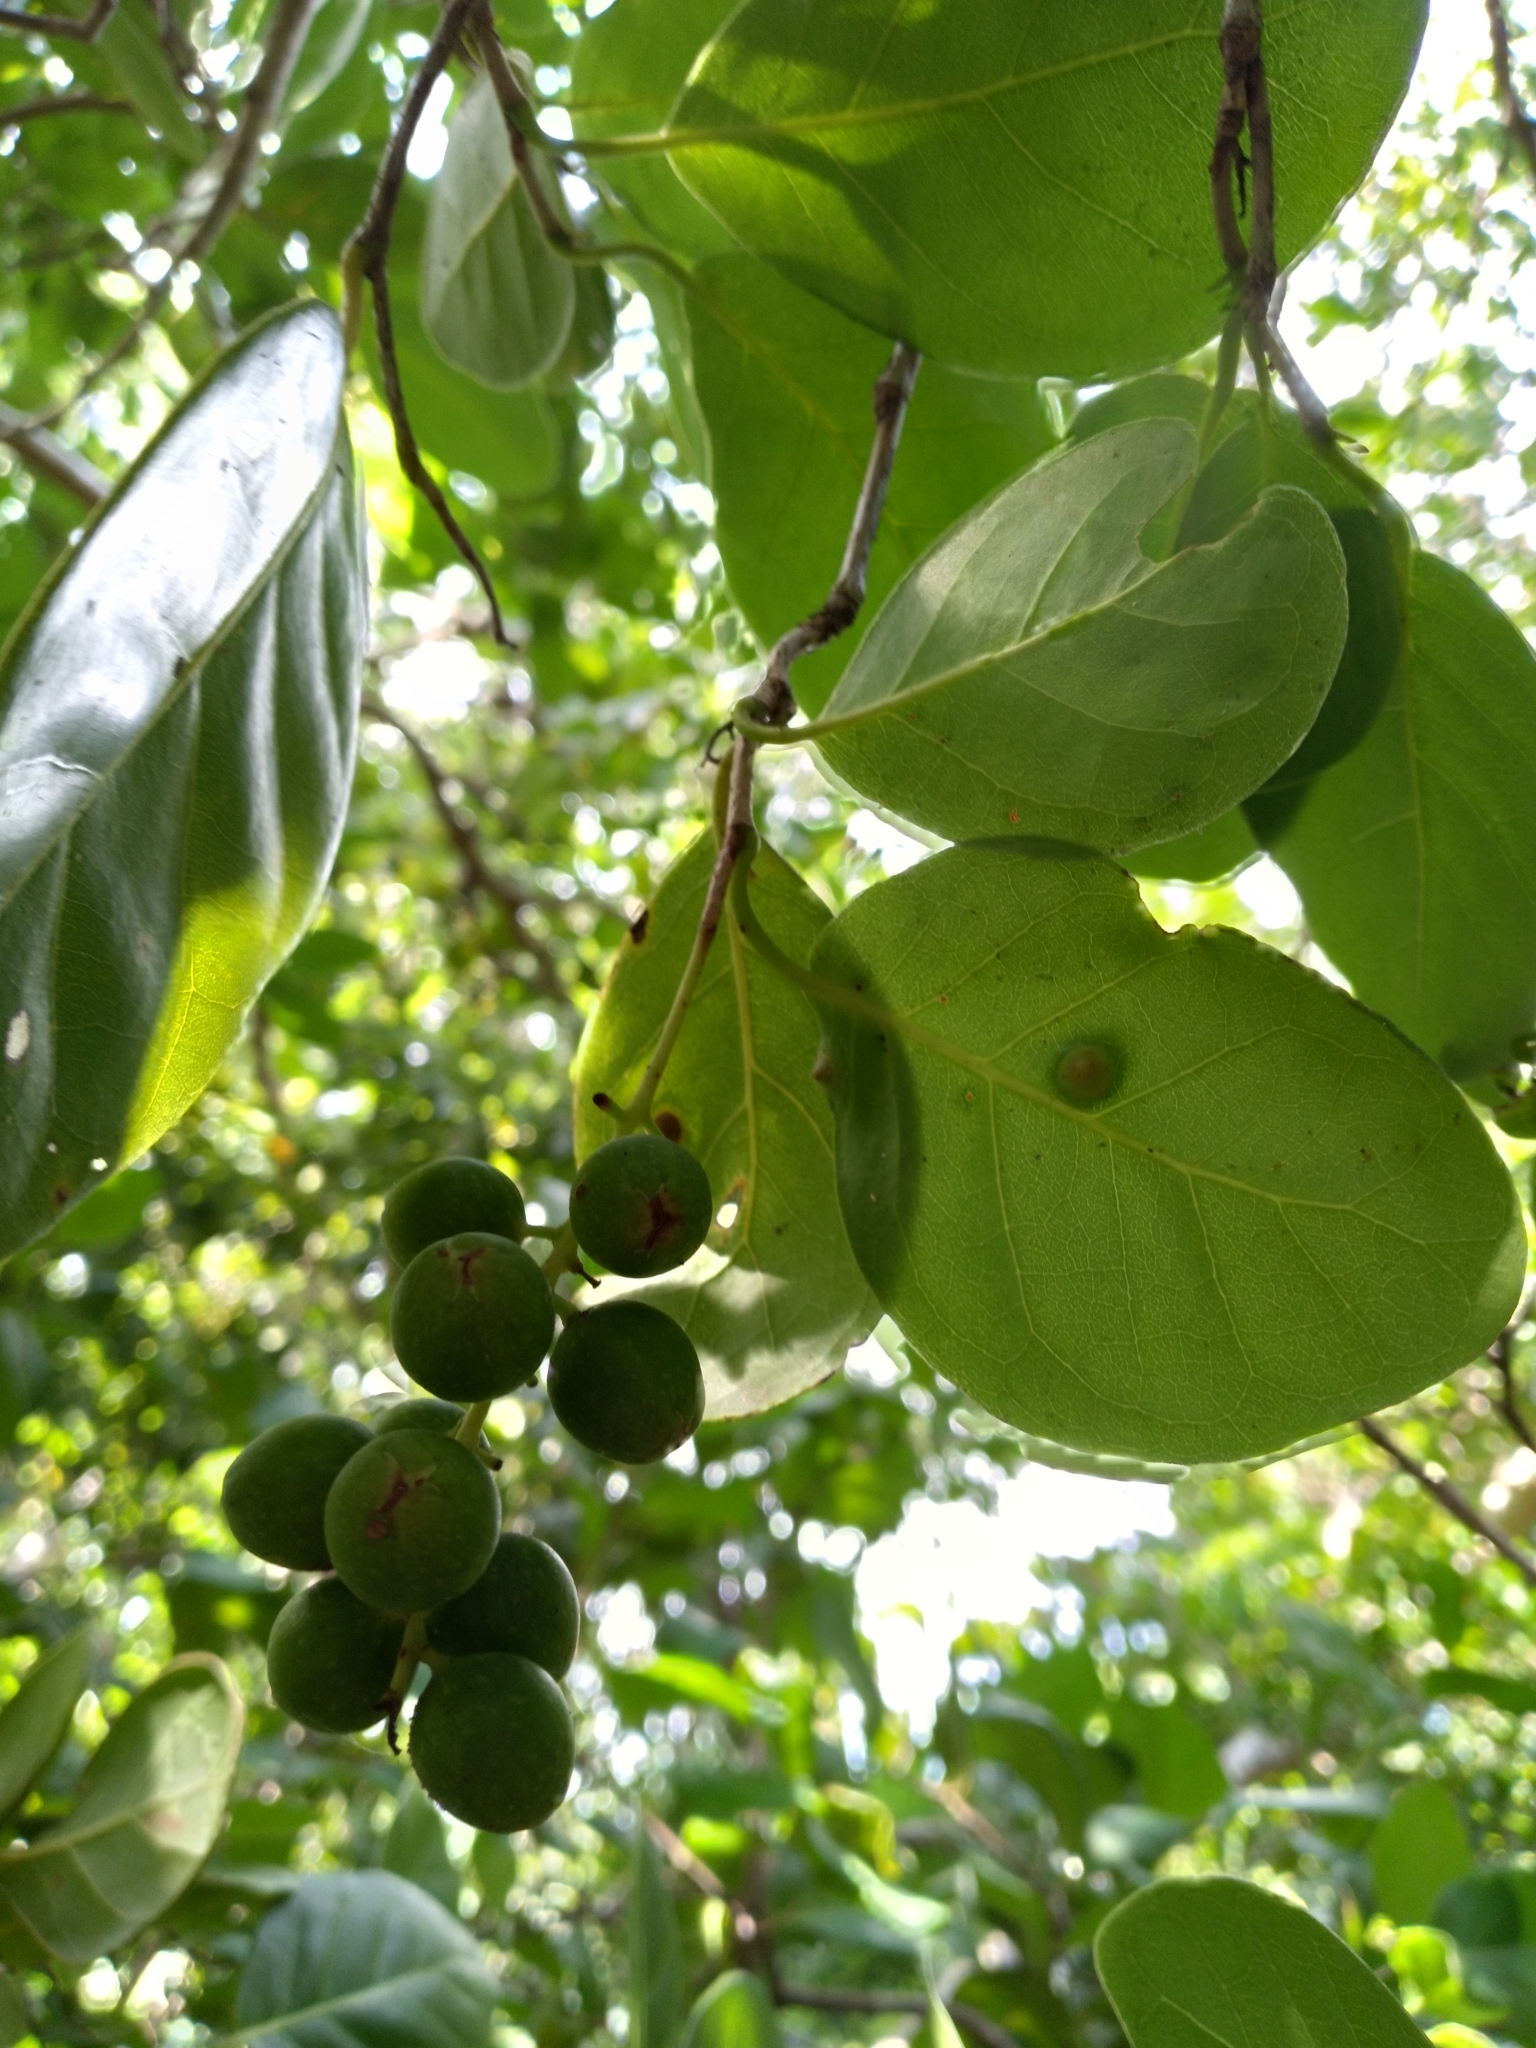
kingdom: Plantae
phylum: Tracheophyta
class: Magnoliopsida
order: Caryophyllales
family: Polygonaceae
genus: Coccoloba
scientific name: Coccoloba diversifolia
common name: Pigeon-plum
